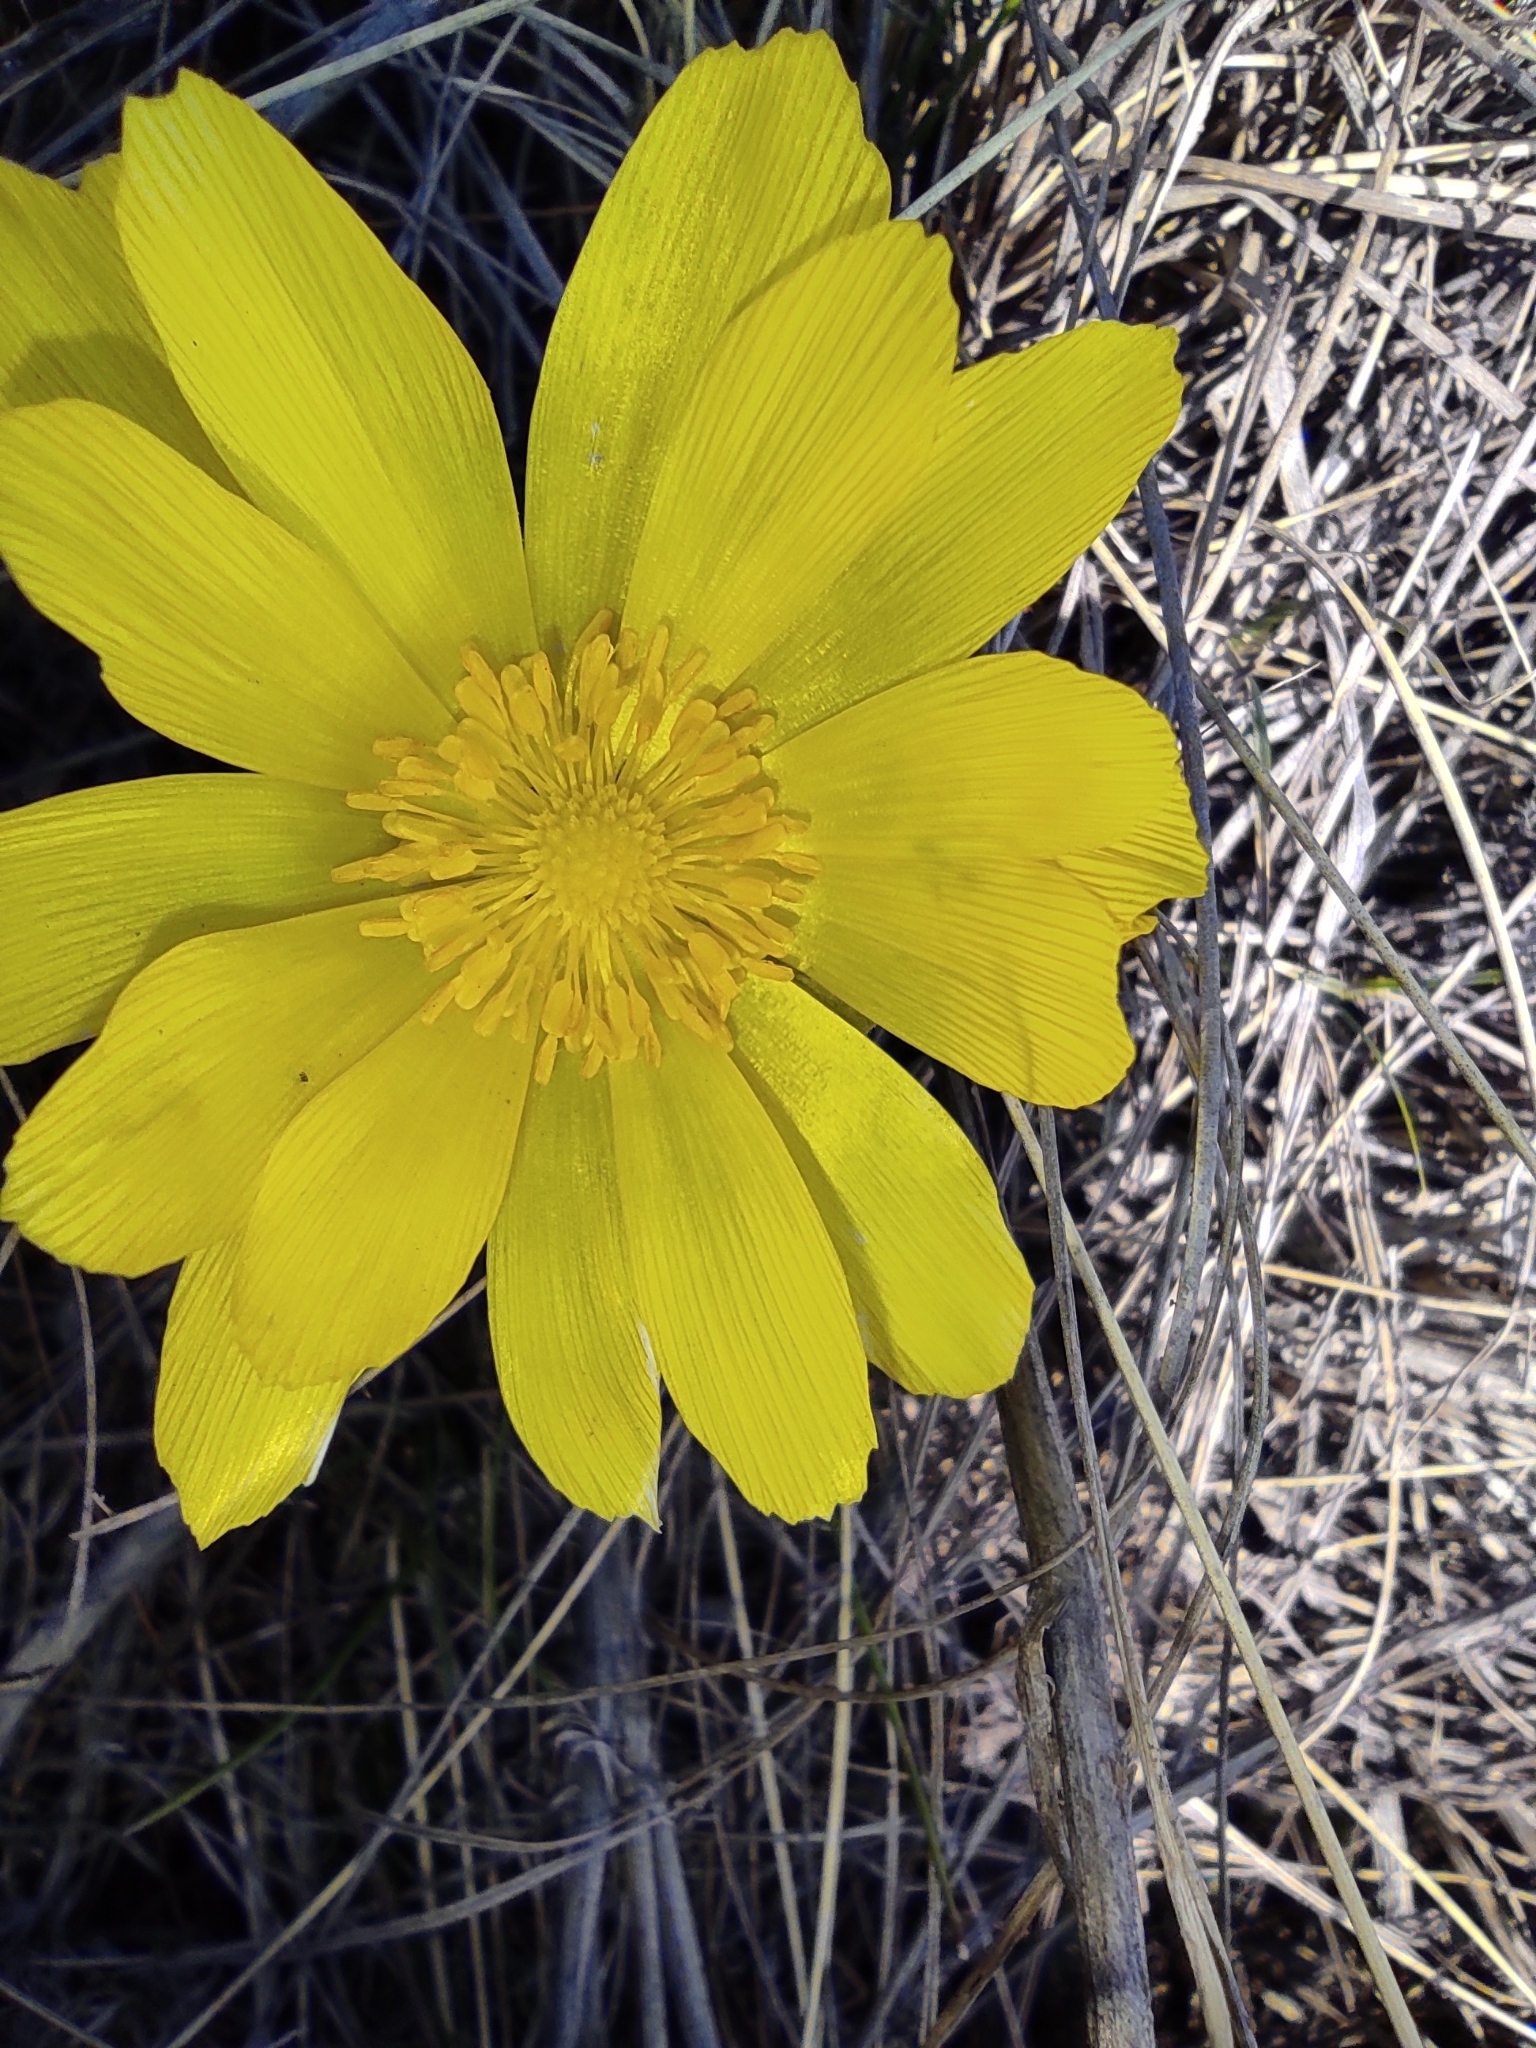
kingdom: Plantae
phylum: Tracheophyta
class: Magnoliopsida
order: Ranunculales
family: Ranunculaceae
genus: Adonis
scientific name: Adonis vernalis
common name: Yellow pheasants-eye
